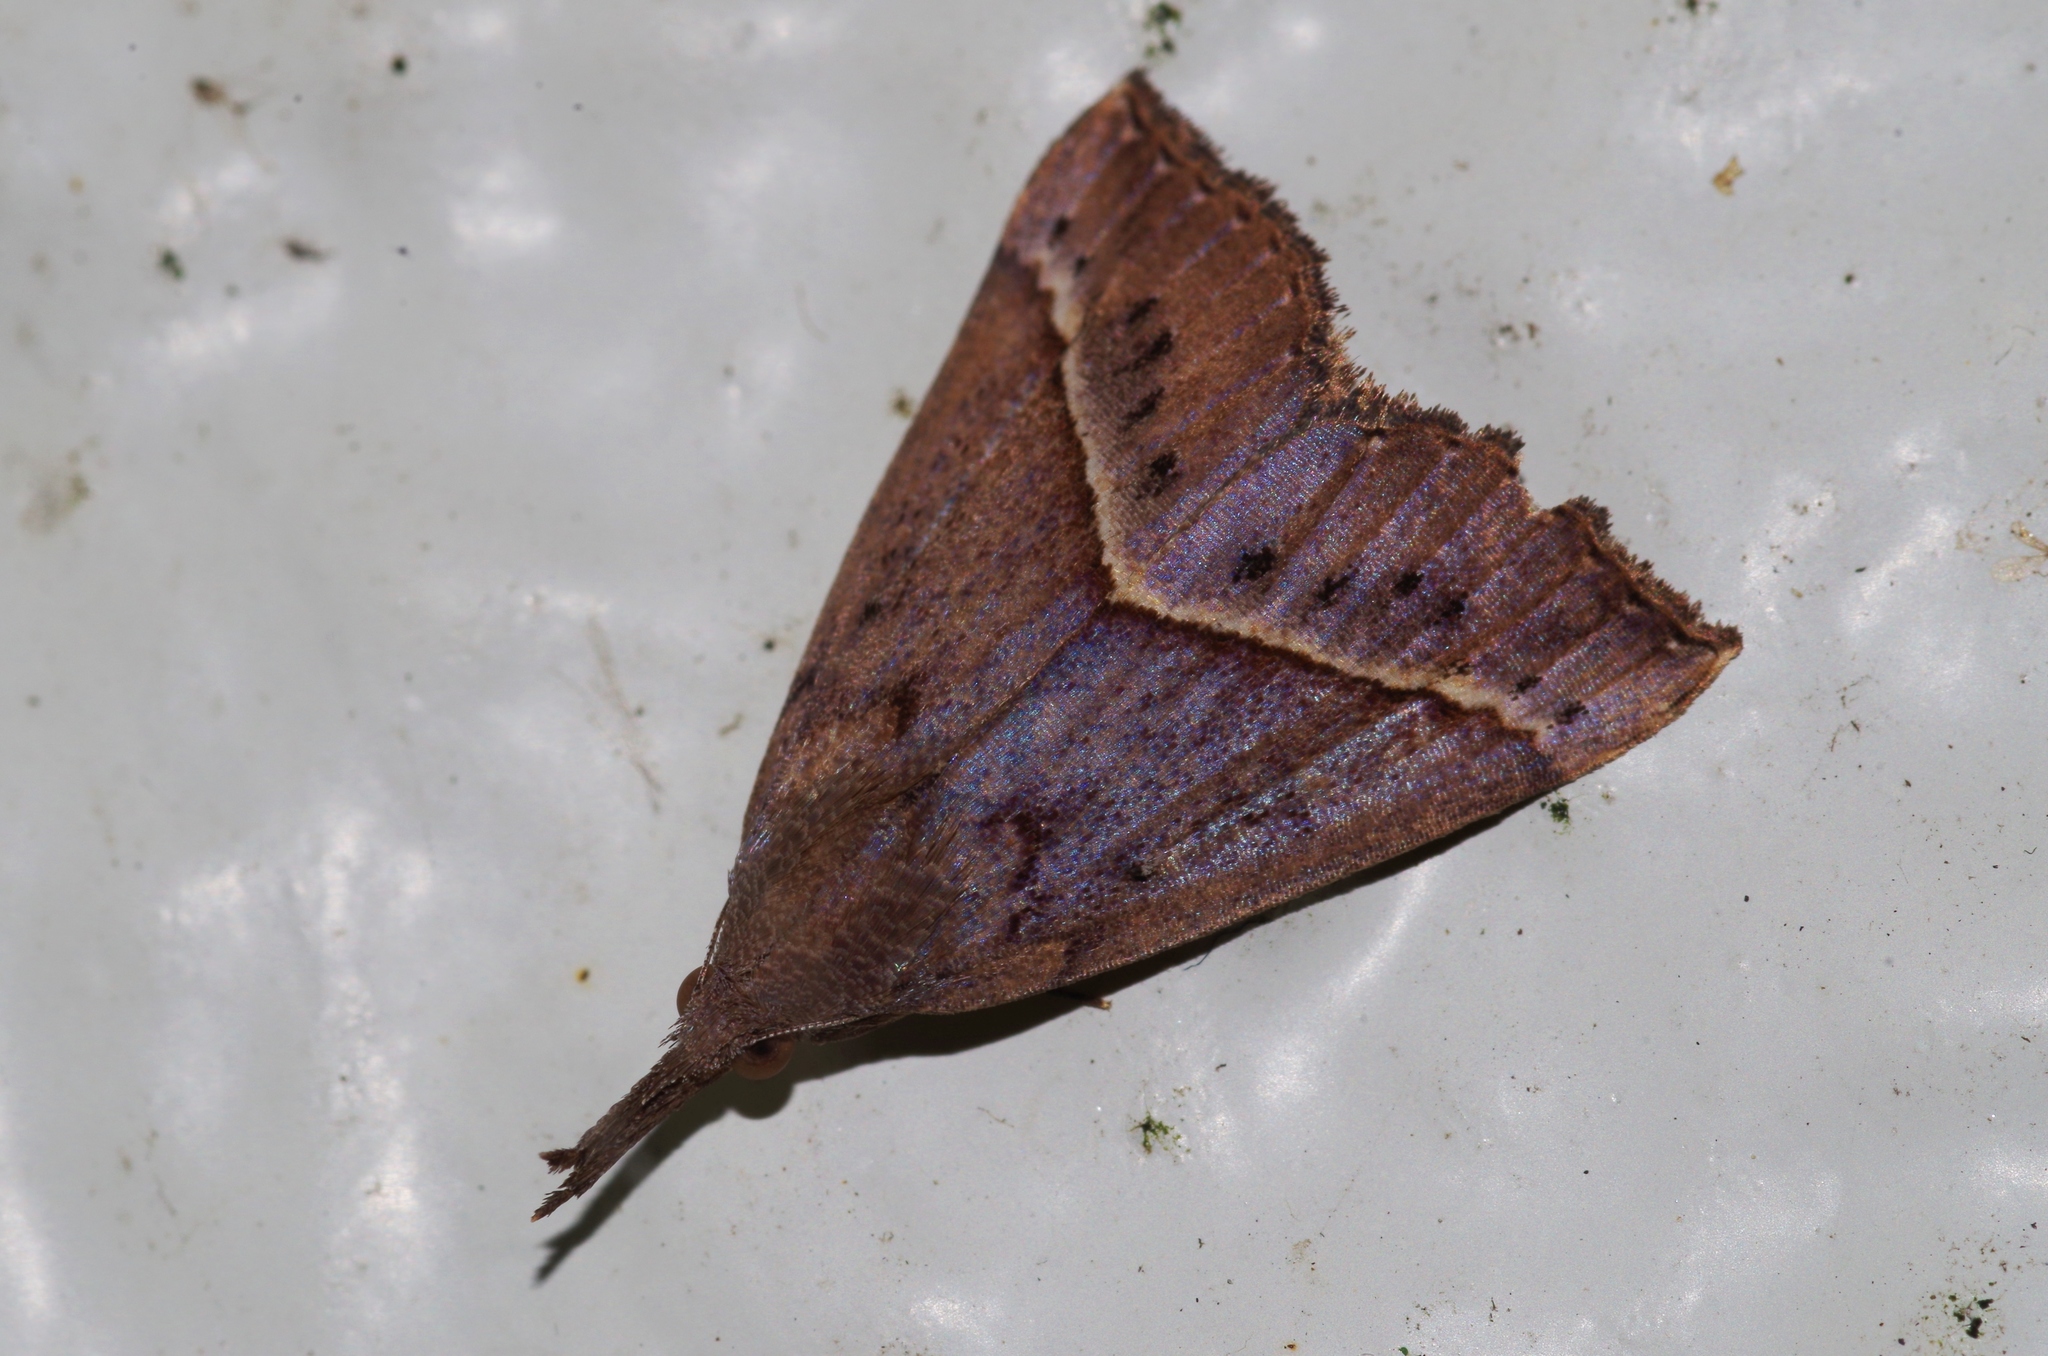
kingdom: Animalia
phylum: Arthropoda
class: Insecta
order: Lepidoptera
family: Erebidae
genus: Hypena
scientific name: Hypena subcyanea
